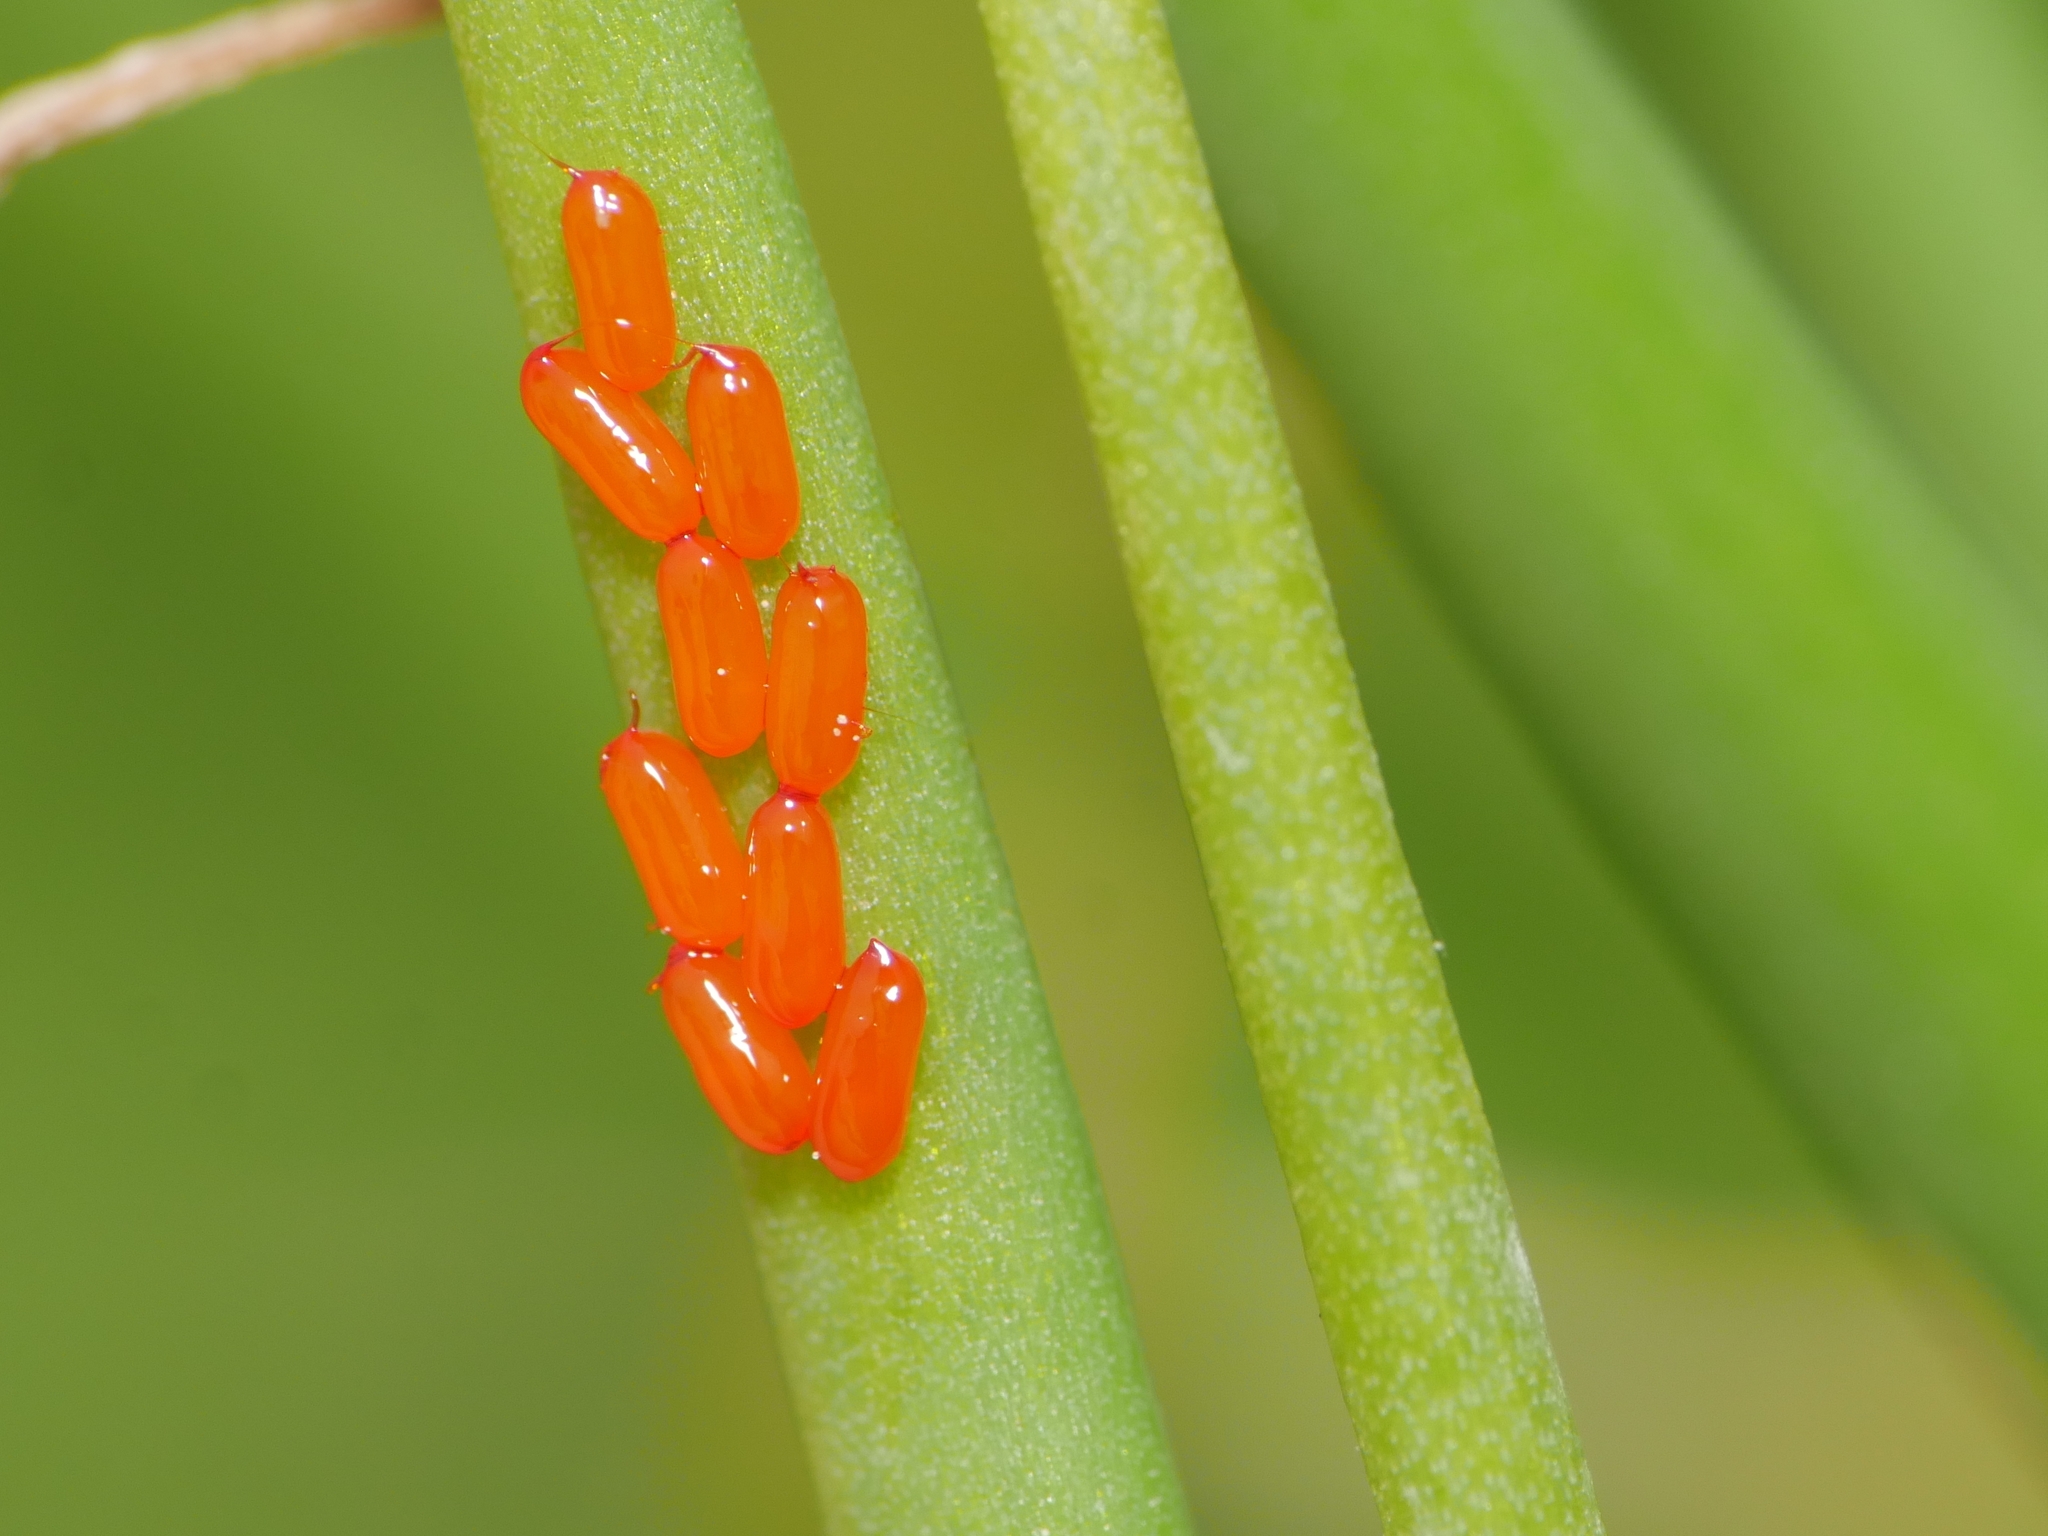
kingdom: Animalia
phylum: Arthropoda
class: Insecta
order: Coleoptera
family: Chrysomelidae
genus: Lilioceris
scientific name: Lilioceris merdigera
